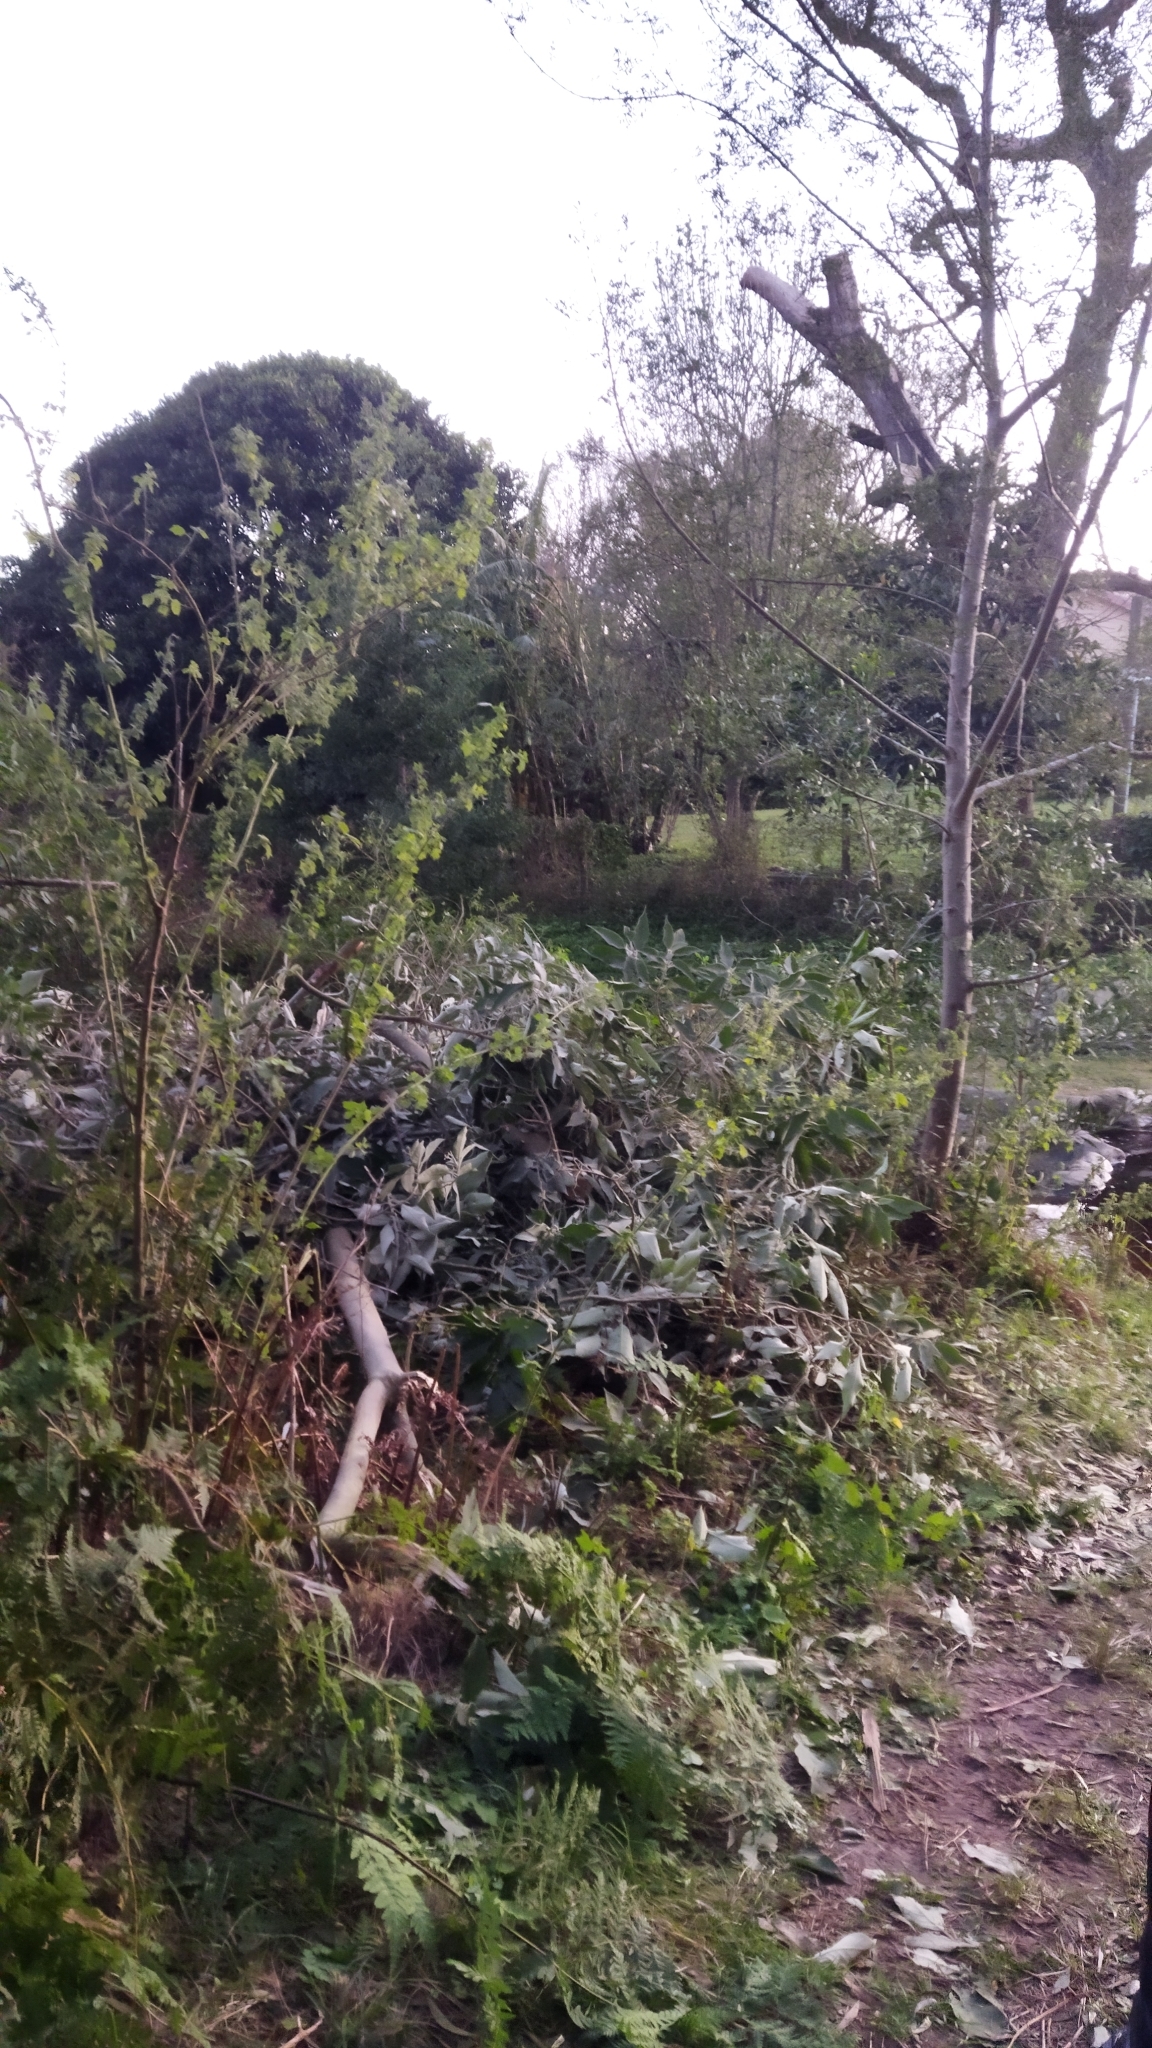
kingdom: Plantae
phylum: Tracheophyta
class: Magnoliopsida
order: Solanales
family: Solanaceae
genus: Solanum
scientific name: Solanum mauritianum
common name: Earleaf nightshade
